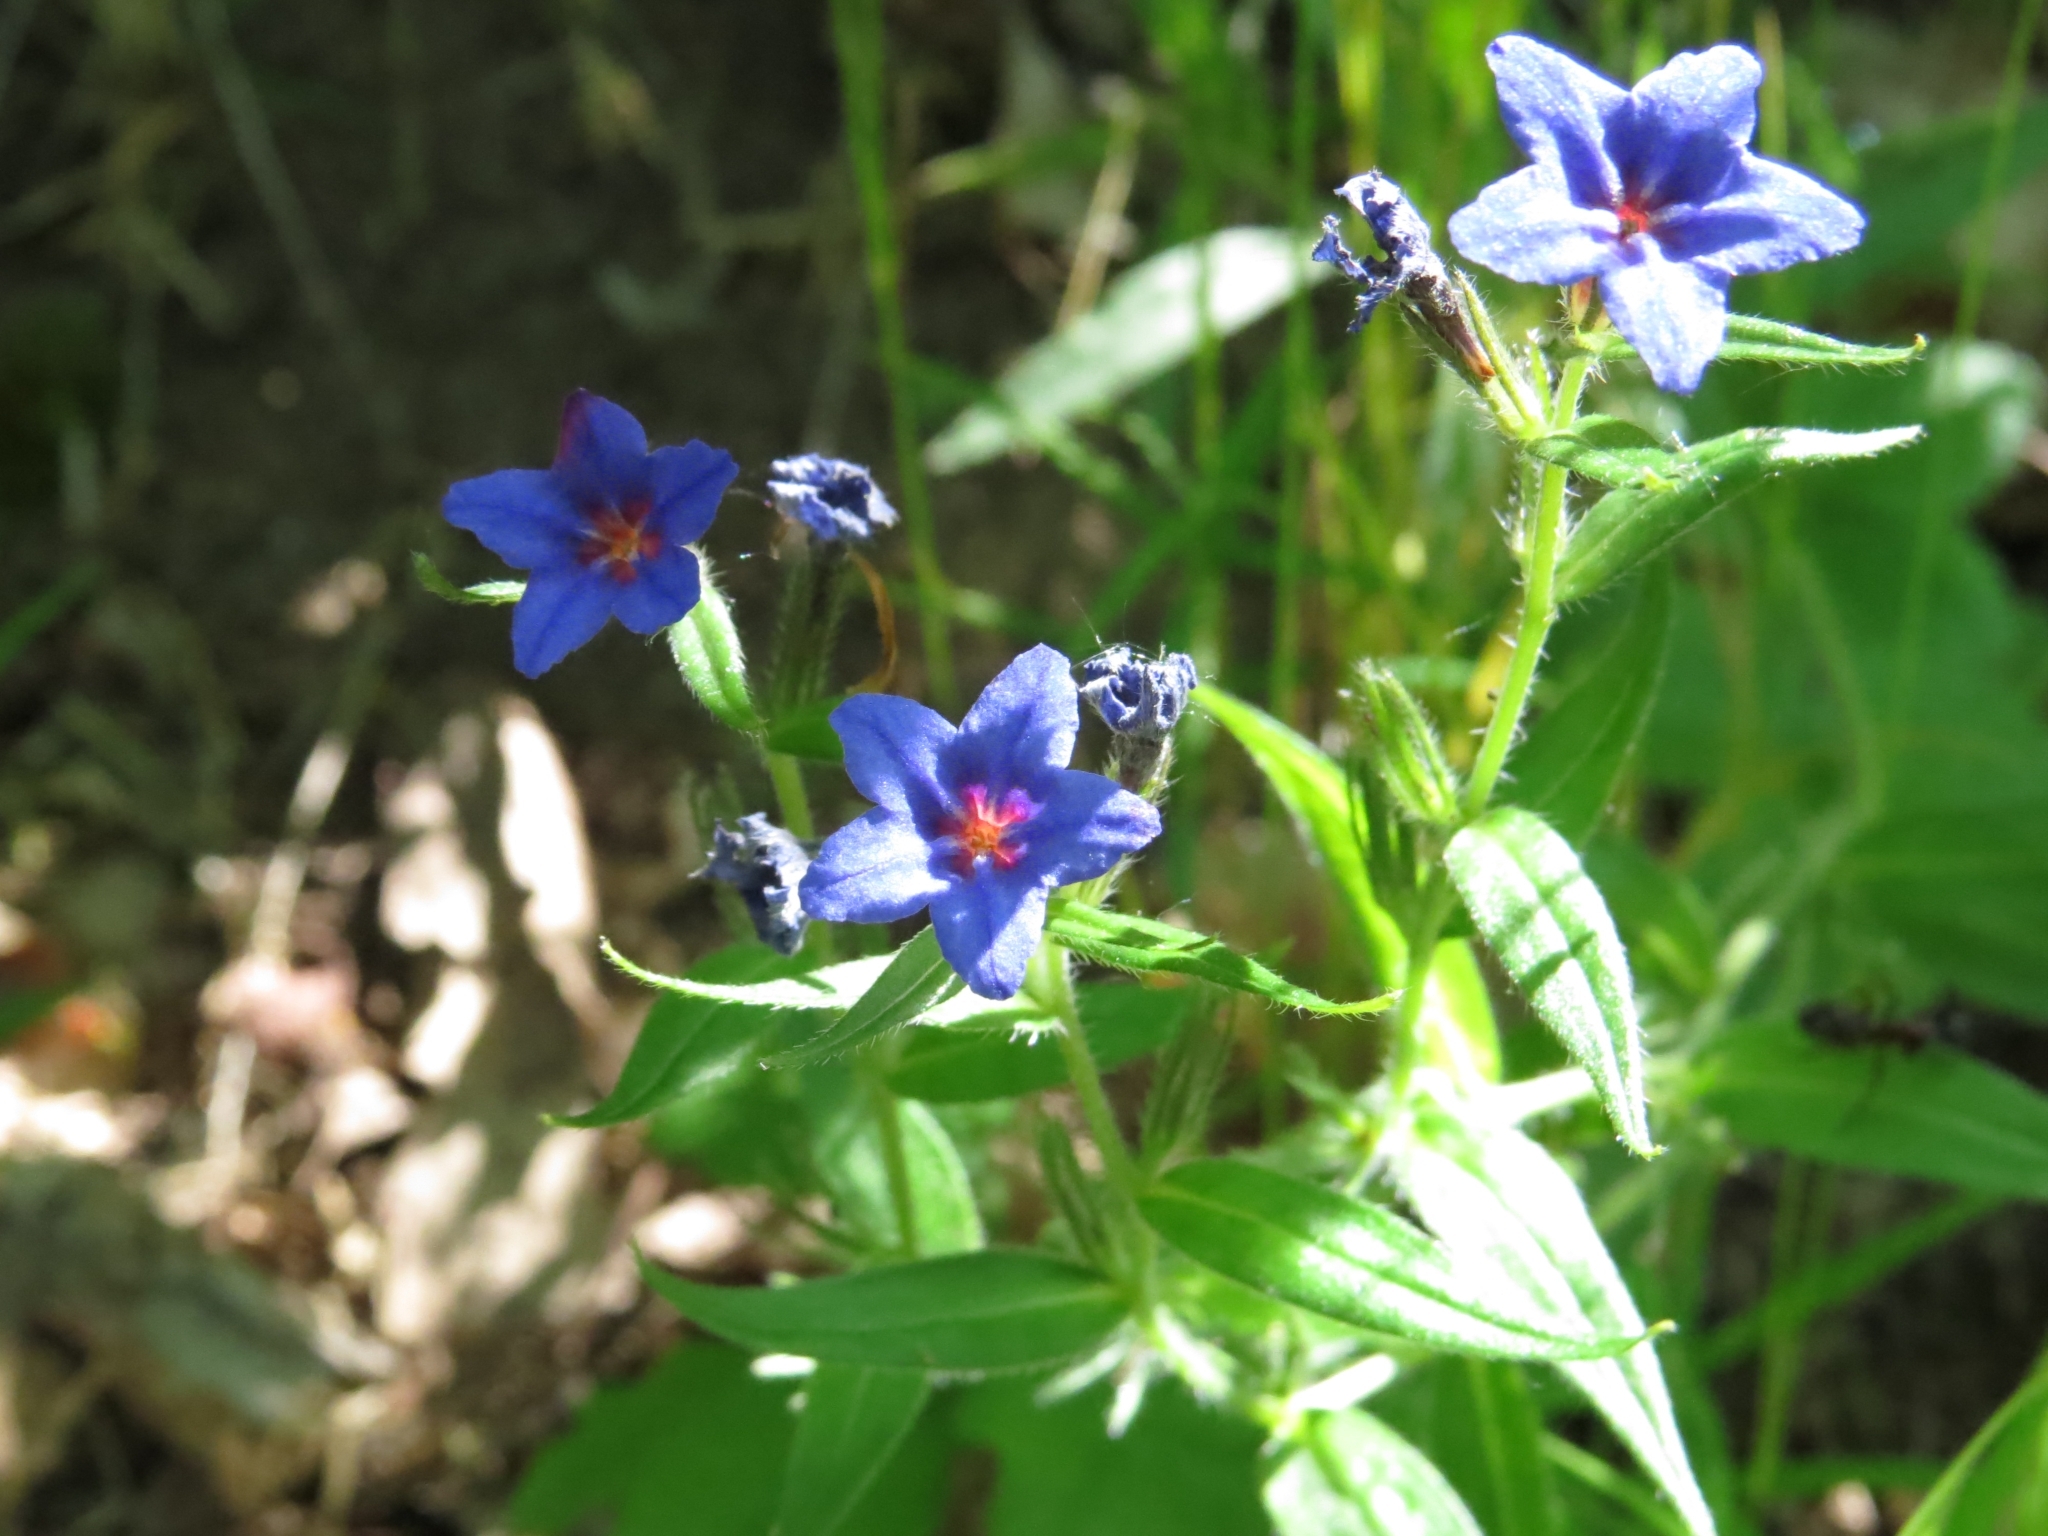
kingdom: Plantae
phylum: Tracheophyta
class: Magnoliopsida
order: Boraginales
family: Boraginaceae
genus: Aegonychon
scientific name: Aegonychon purpurocaeruleum
